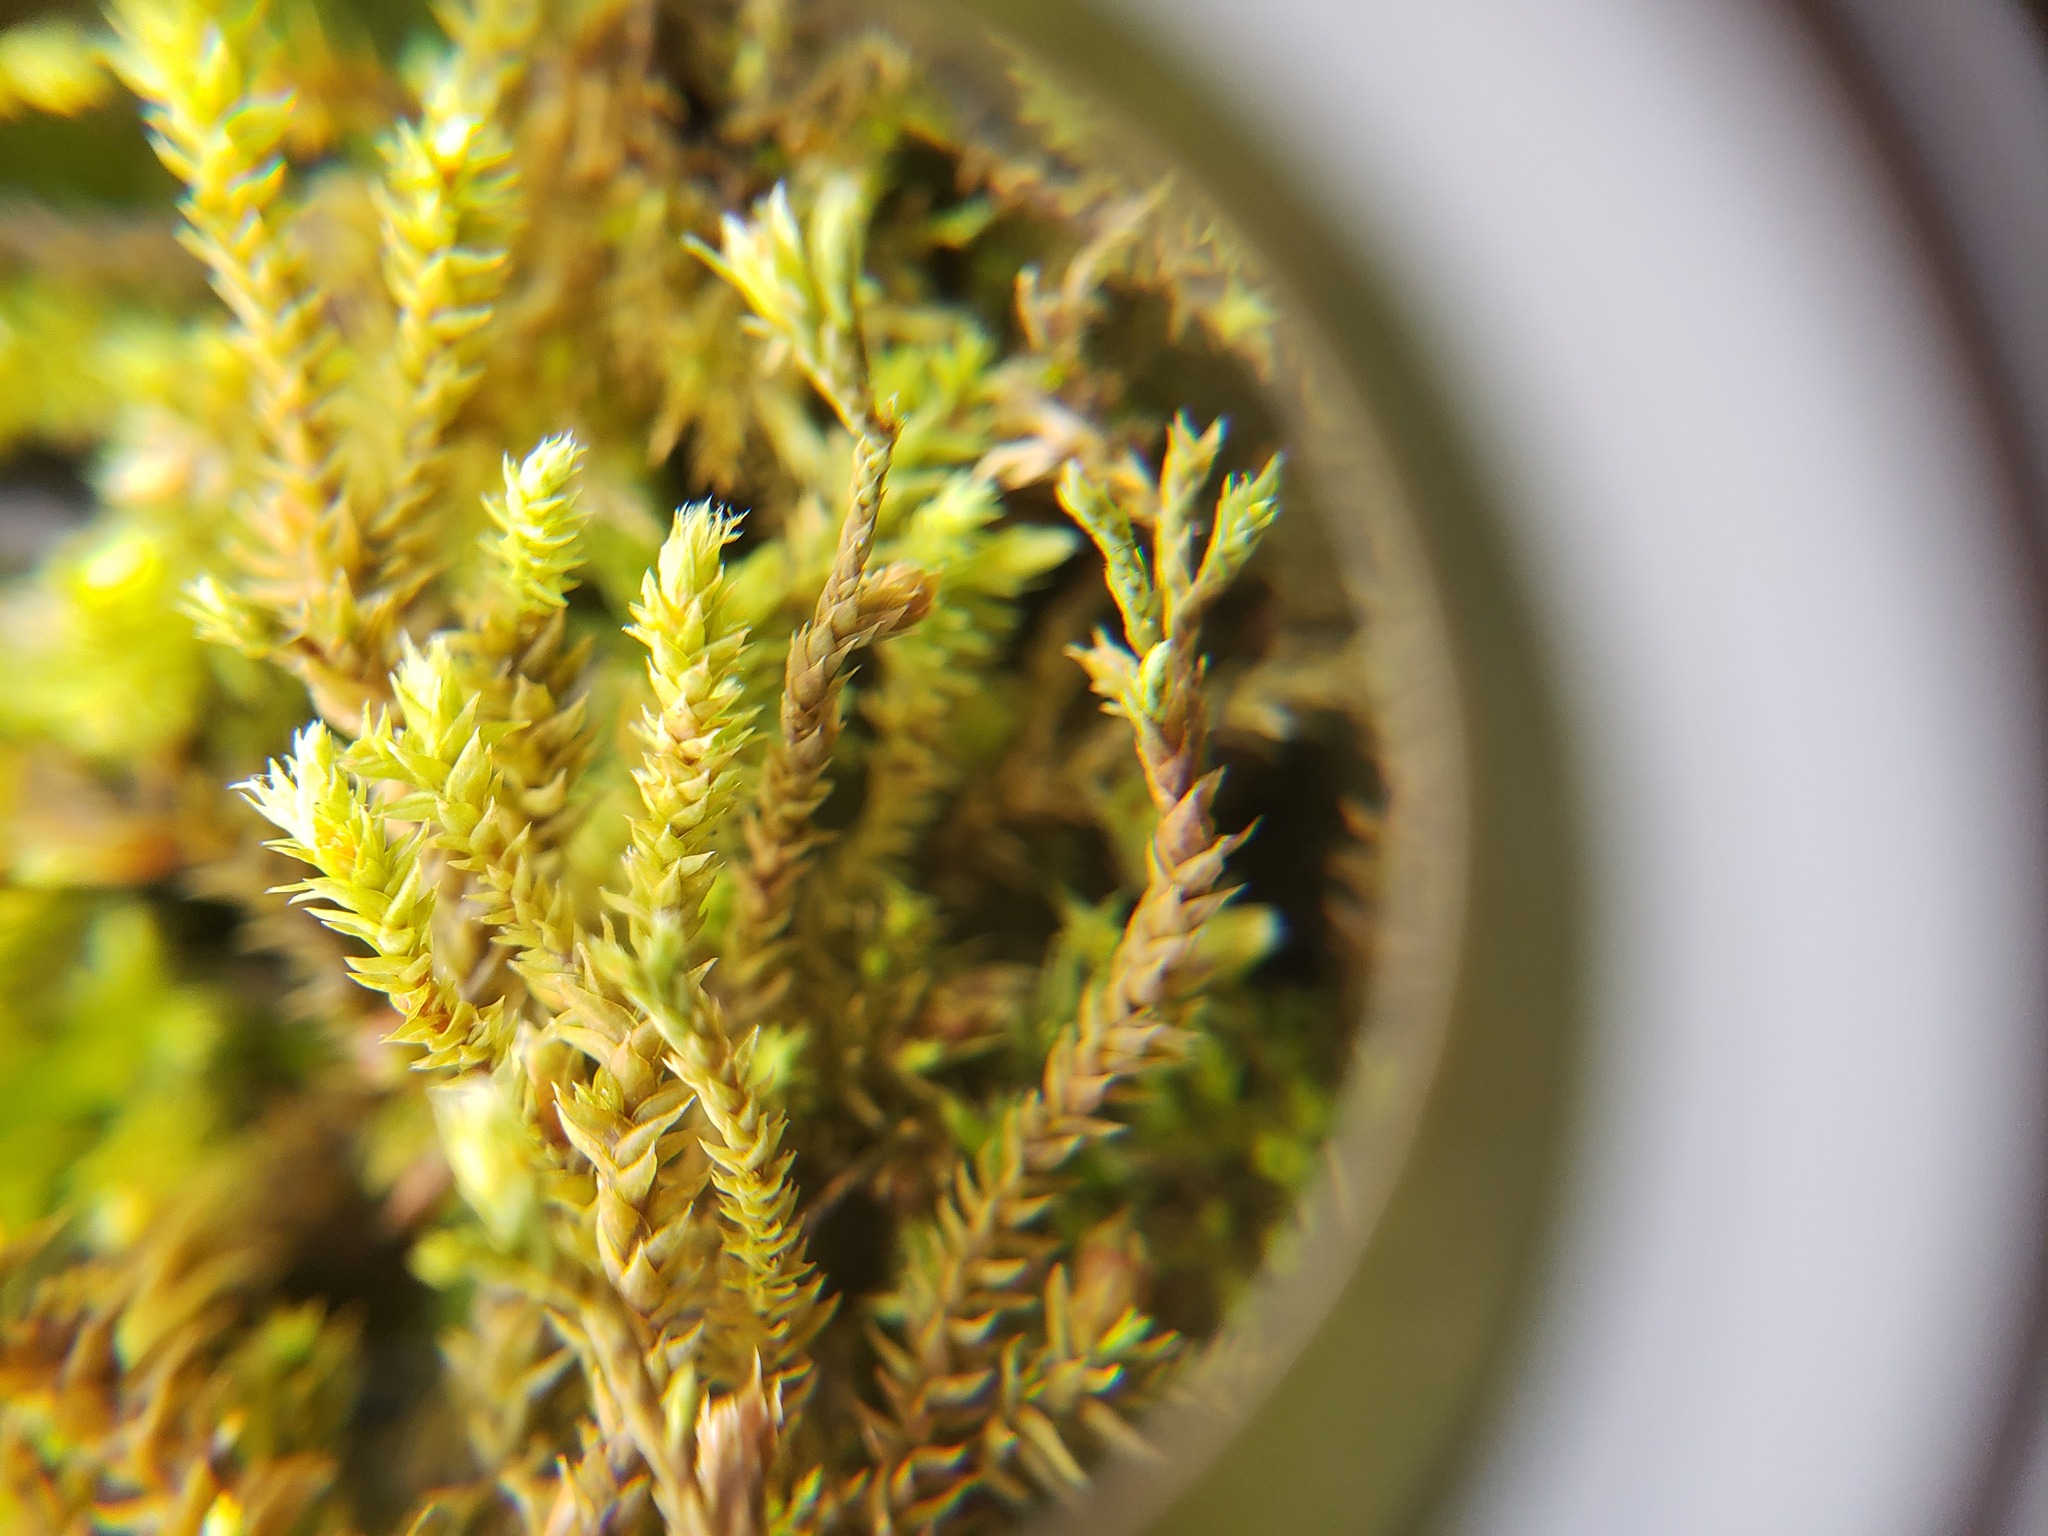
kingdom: Plantae
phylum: Bryophyta
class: Bryopsida
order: Hedwigiales
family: Hedwigiaceae
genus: Hedwigia
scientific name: Hedwigia filiformis
